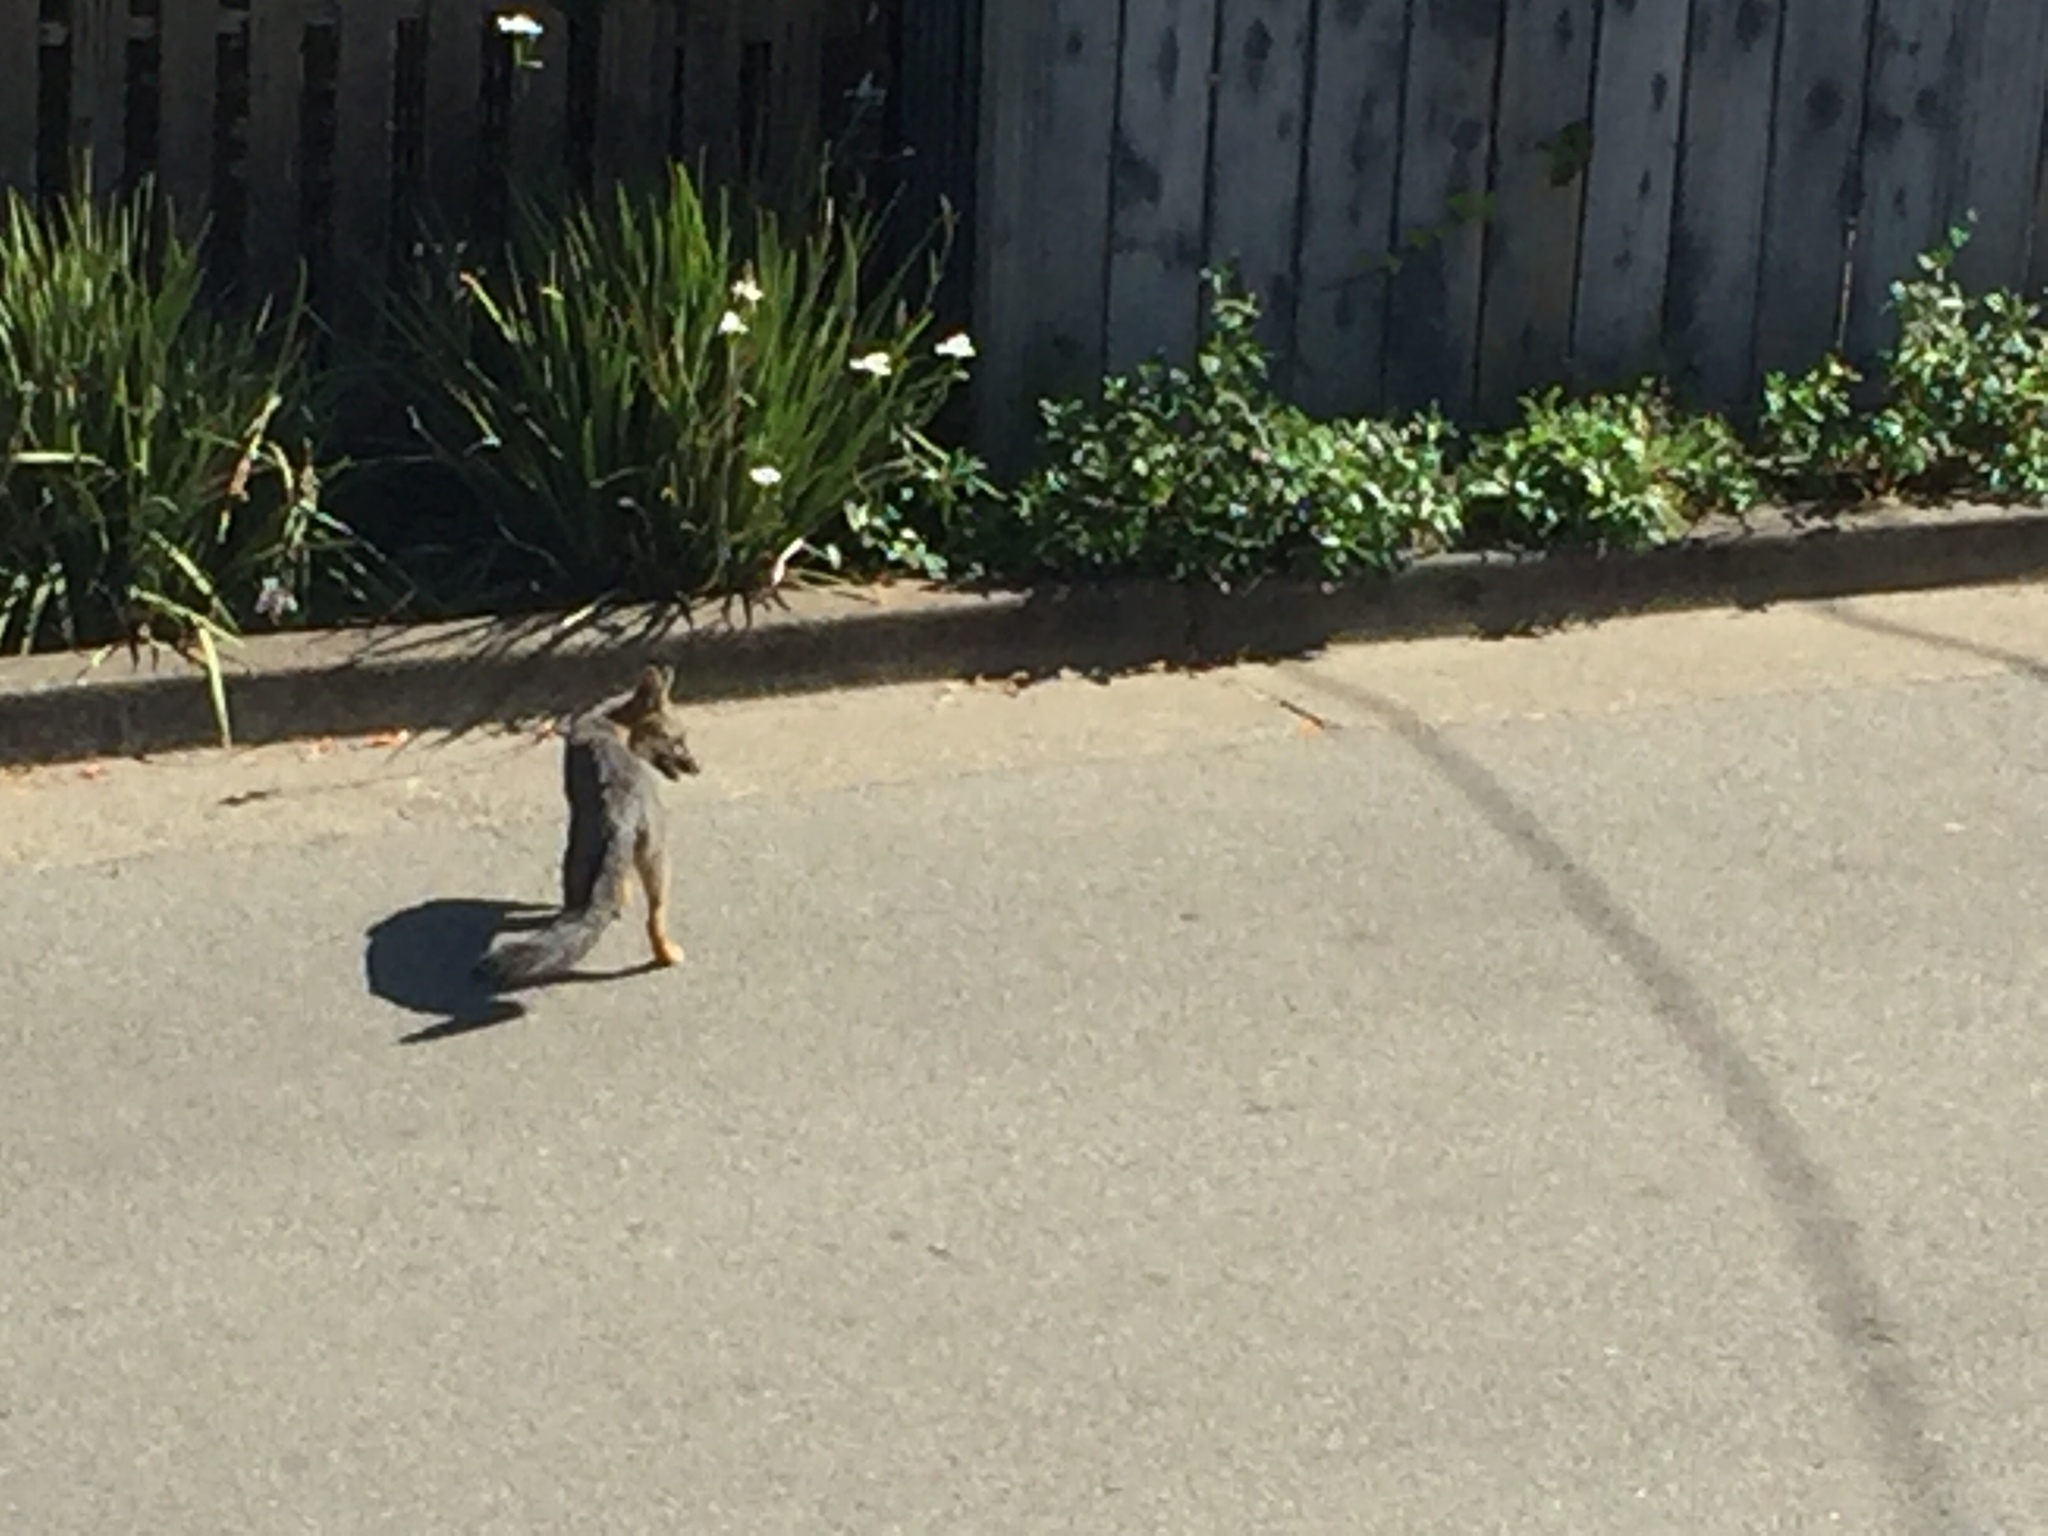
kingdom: Animalia
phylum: Chordata
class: Mammalia
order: Carnivora
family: Canidae
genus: Urocyon
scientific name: Urocyon cinereoargenteus
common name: Gray fox
